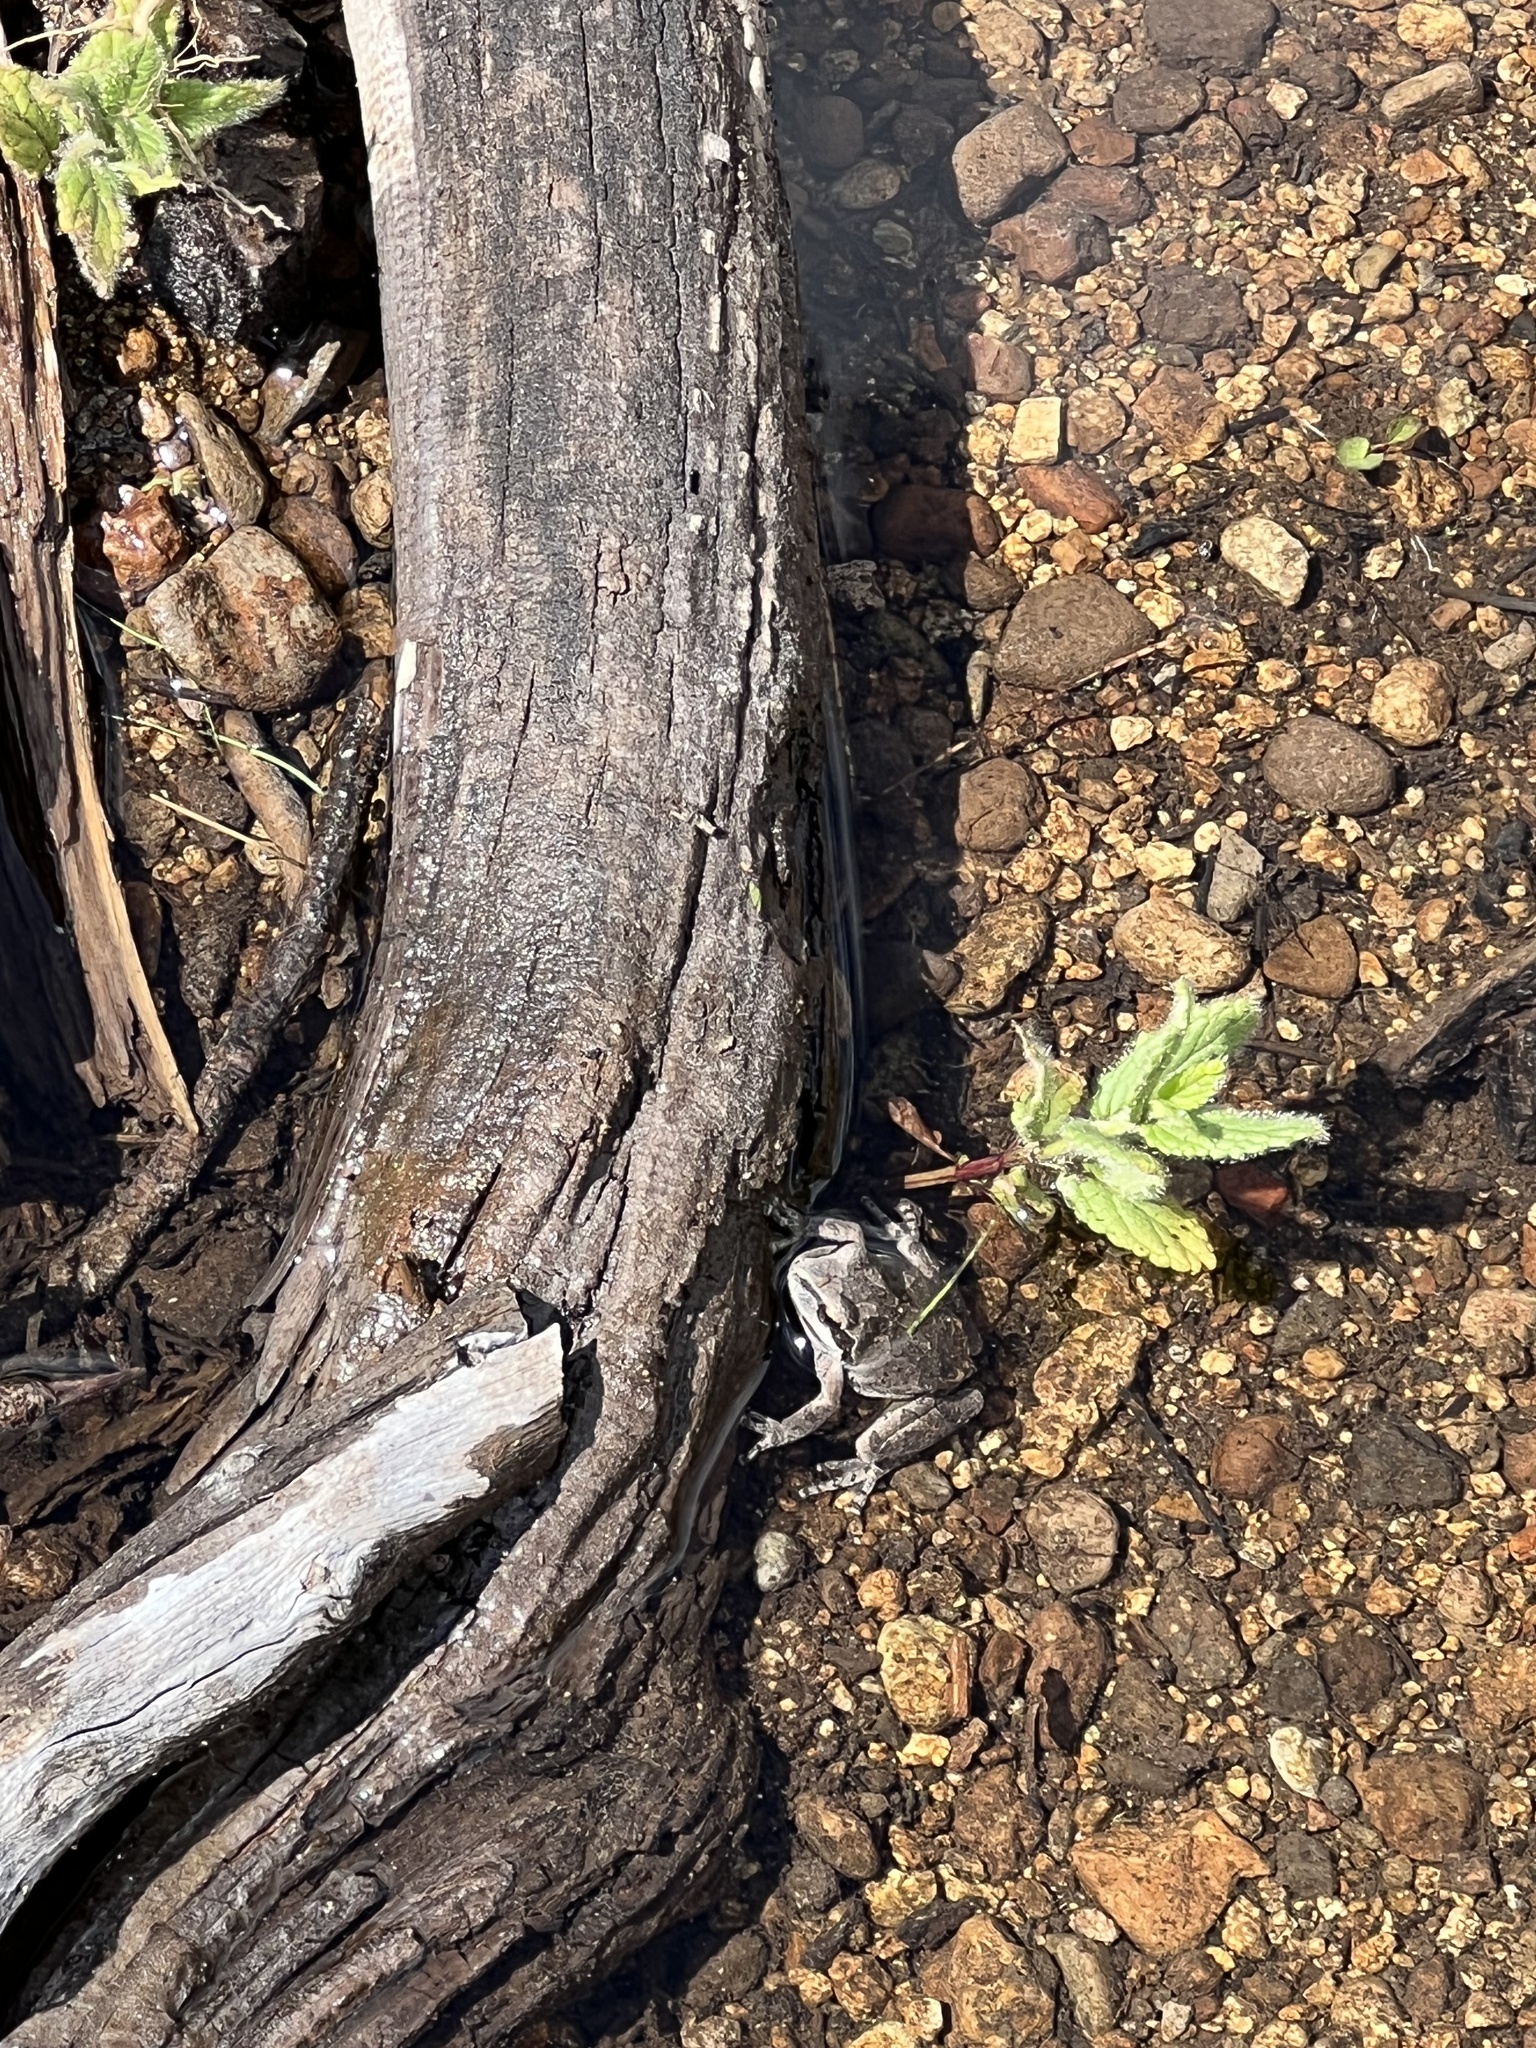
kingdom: Animalia
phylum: Chordata
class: Amphibia
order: Anura
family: Hylidae
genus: Pseudacris
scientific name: Pseudacris regilla
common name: Pacific chorus frog
